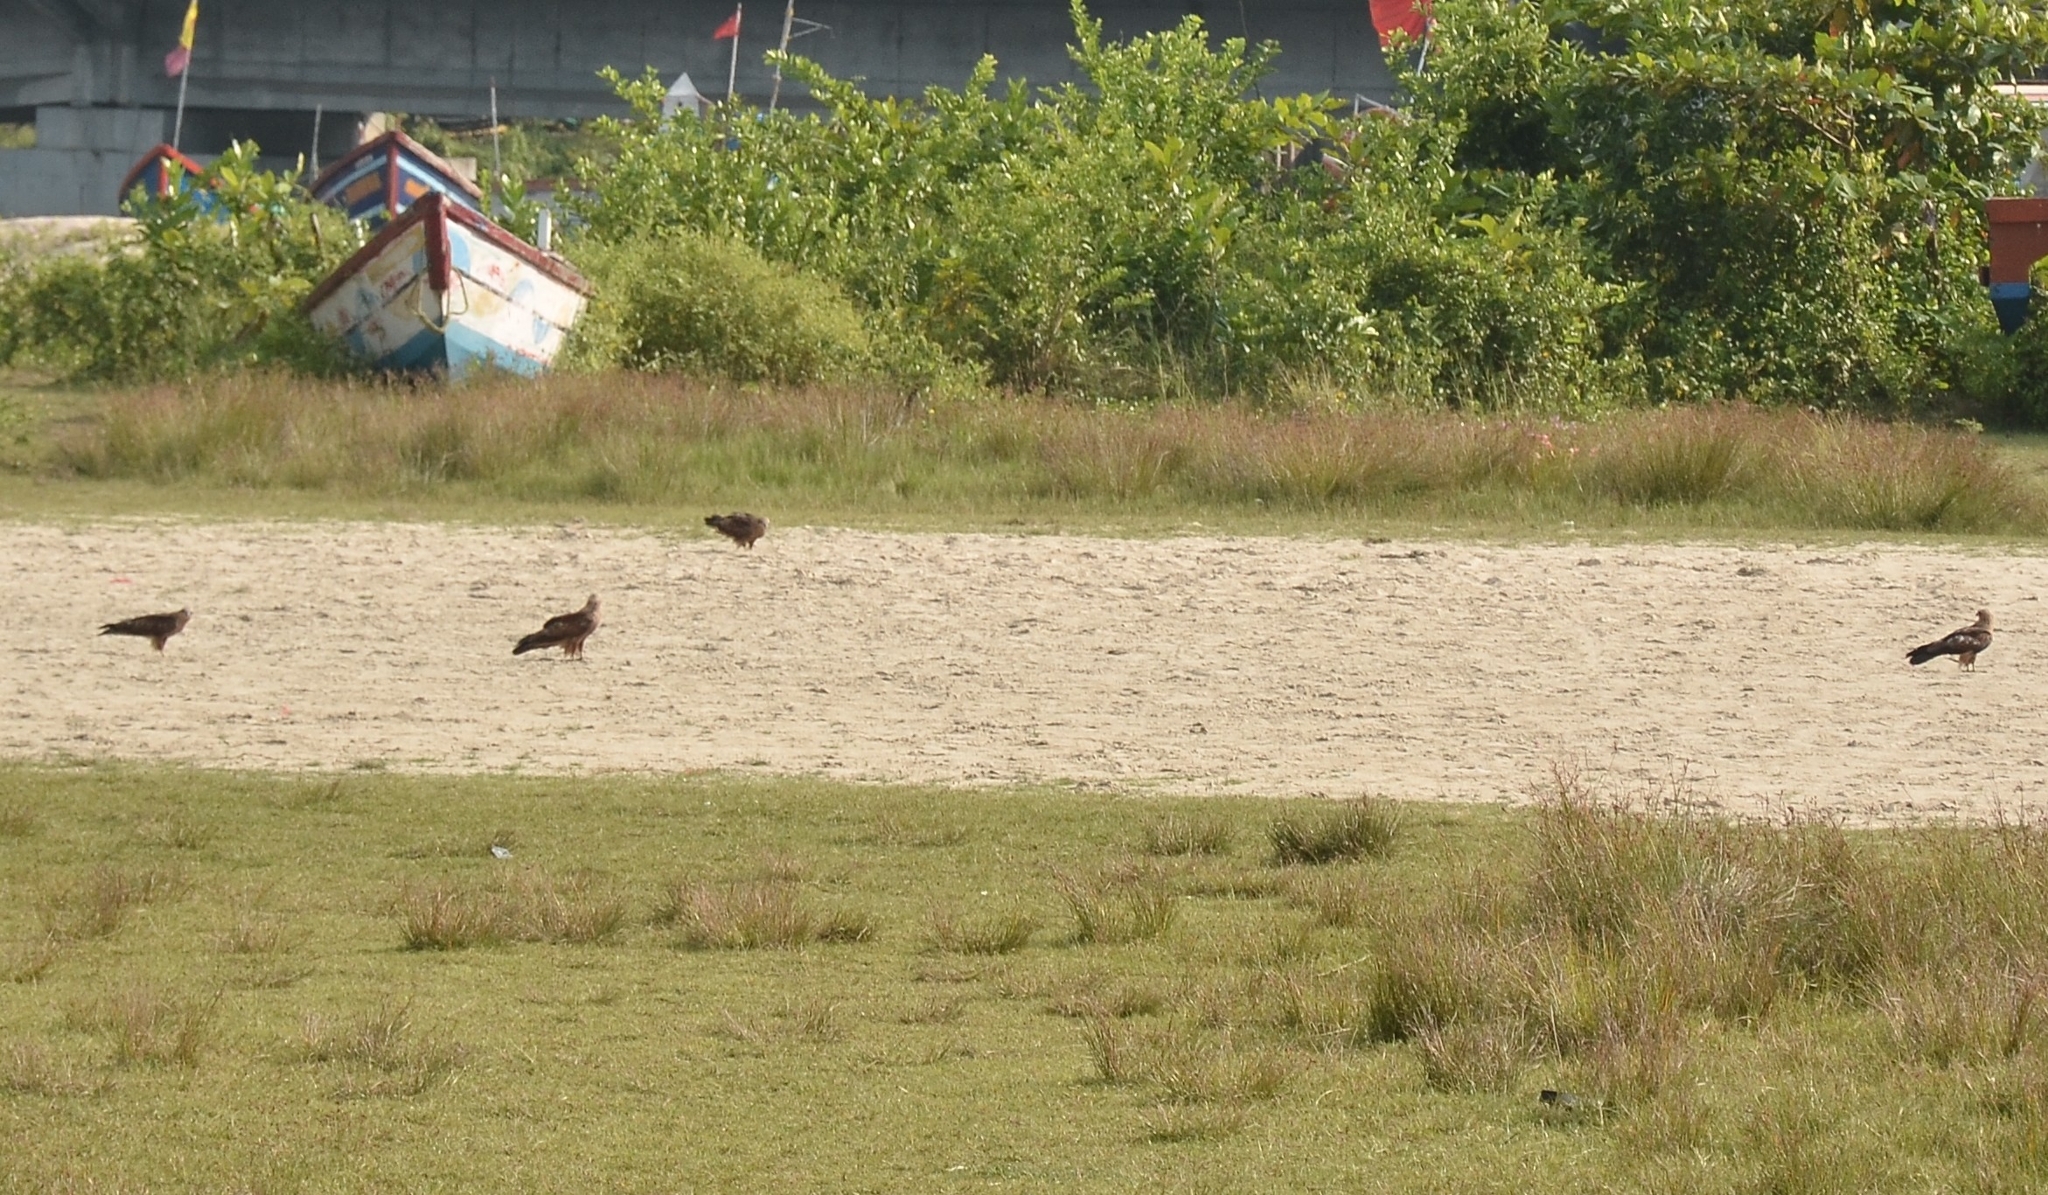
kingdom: Animalia
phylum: Chordata
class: Aves
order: Accipitriformes
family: Accipitridae
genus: Milvus
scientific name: Milvus migrans
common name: Black kite
